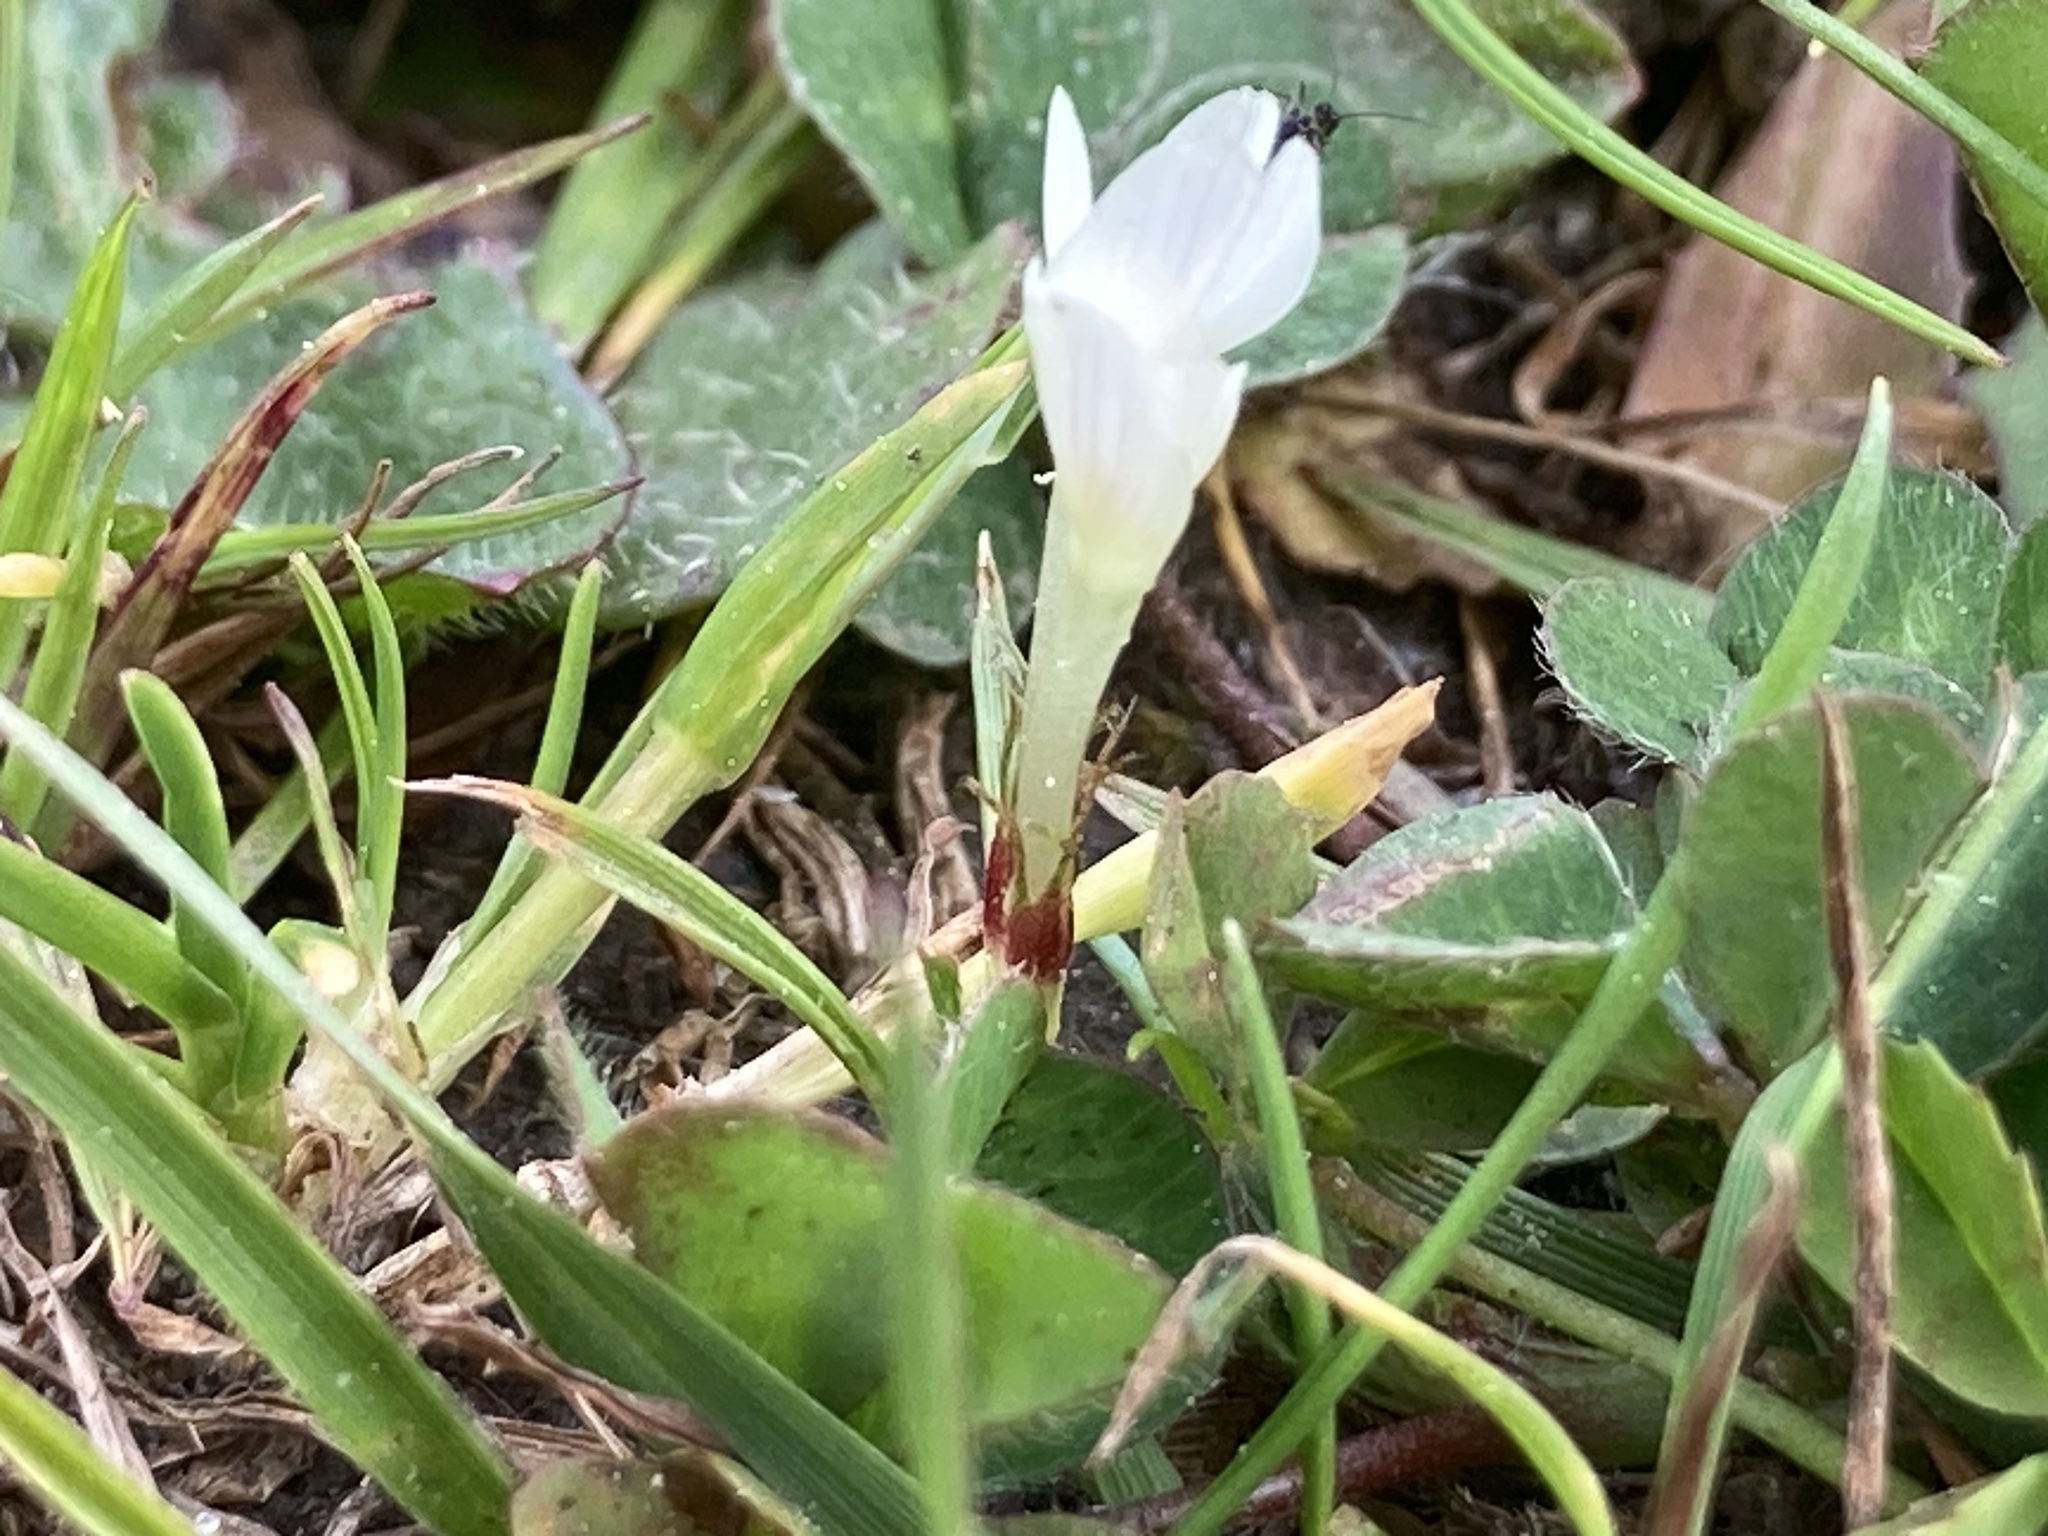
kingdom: Plantae
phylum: Tracheophyta
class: Magnoliopsida
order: Fabales
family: Fabaceae
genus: Trifolium
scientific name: Trifolium subterraneum
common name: Subterranean clover
